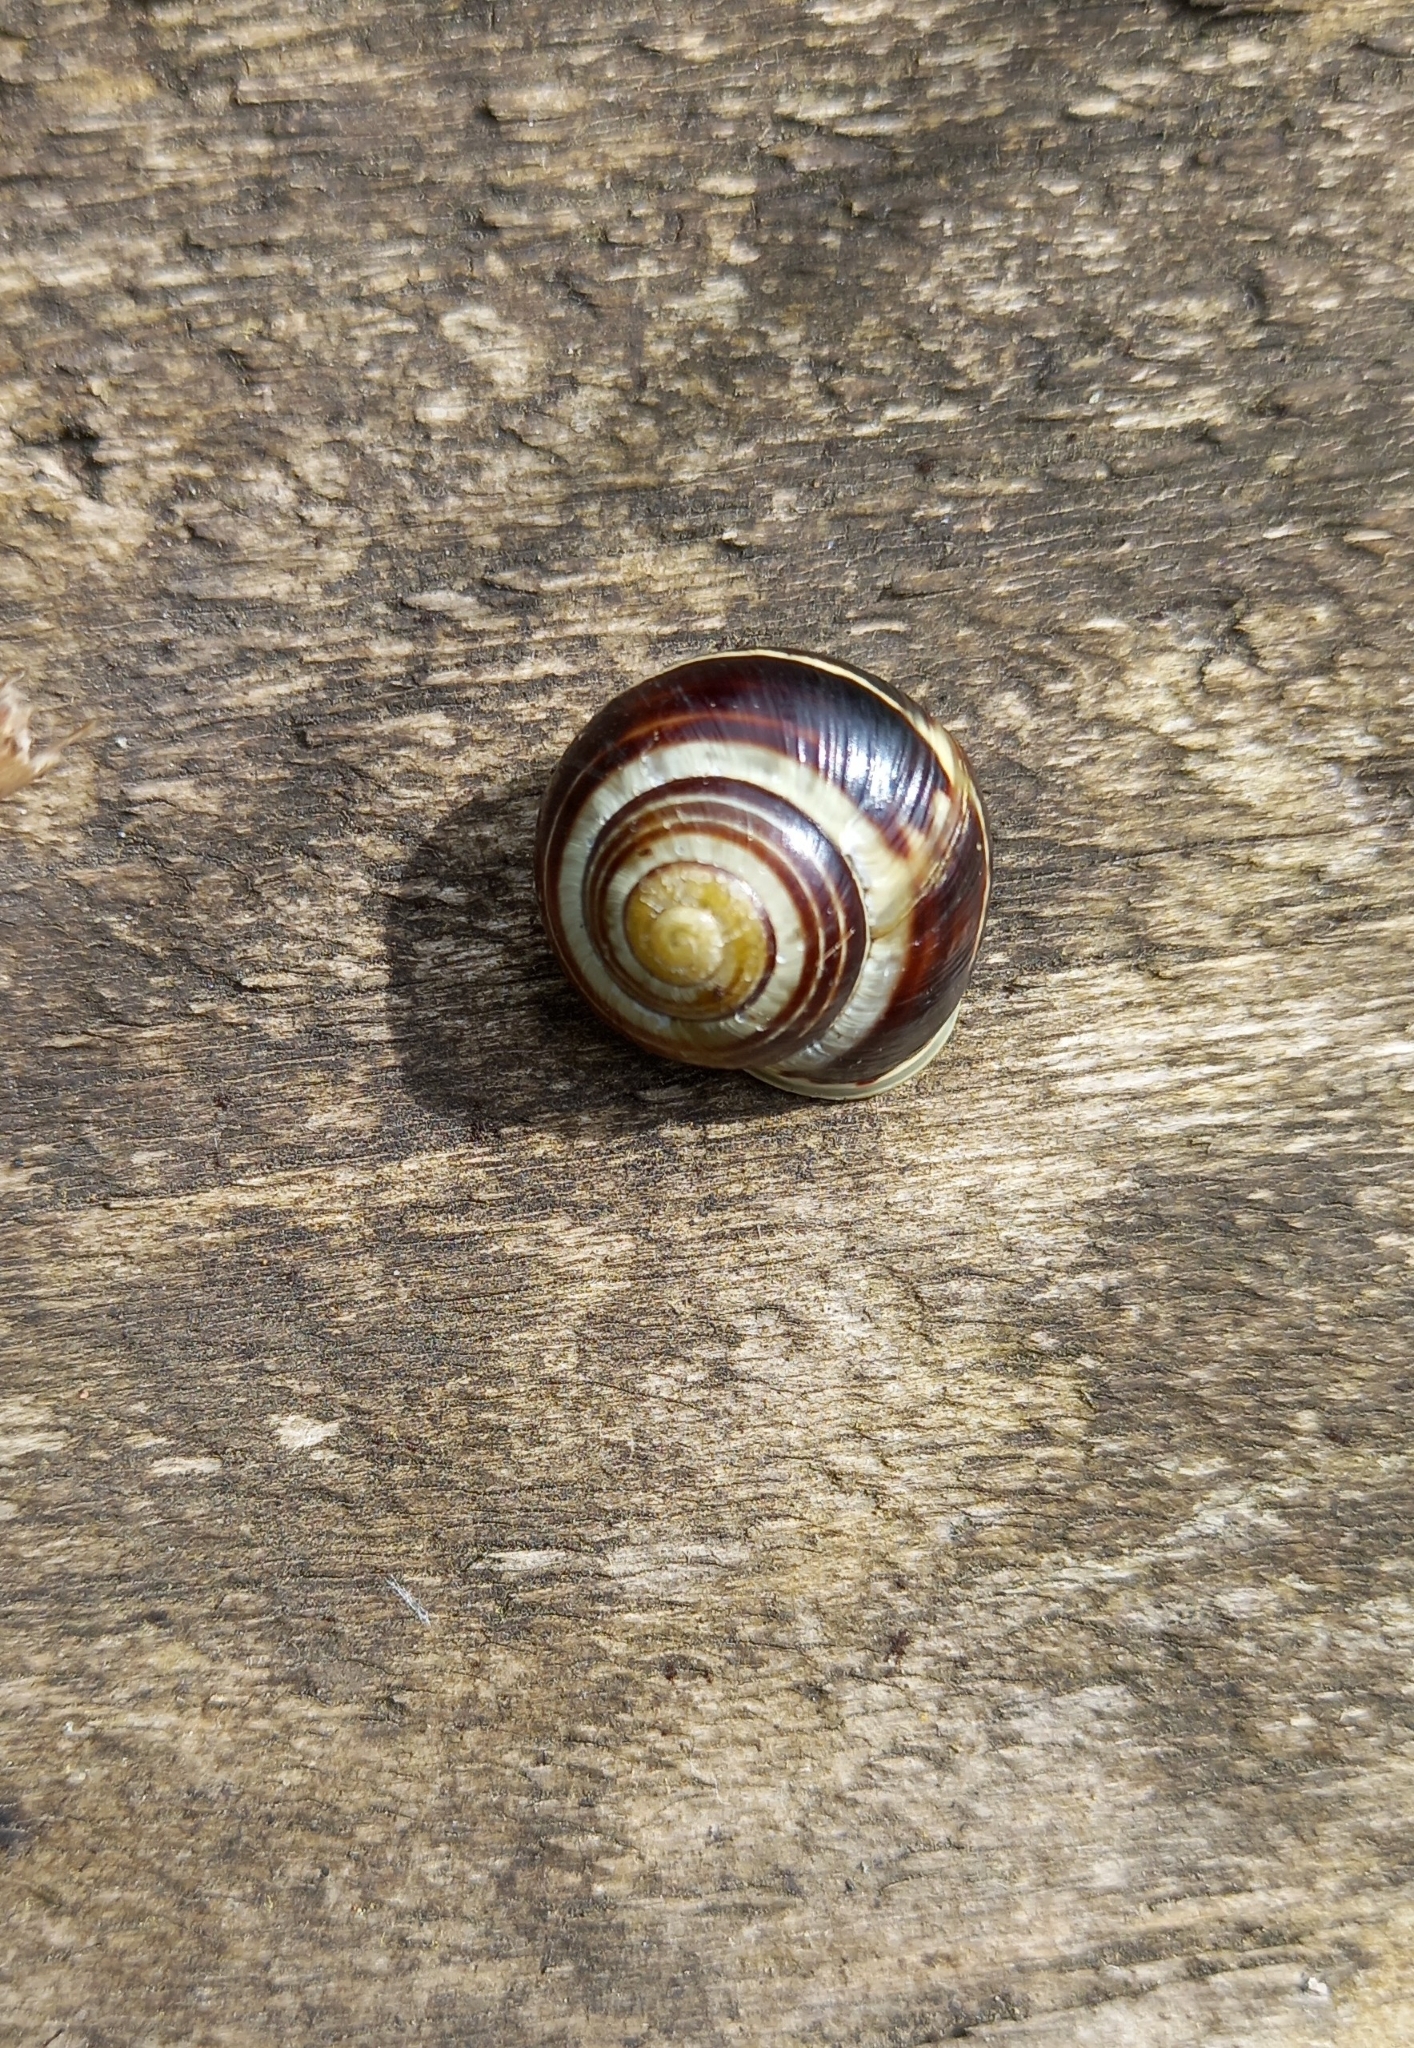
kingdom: Animalia
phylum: Mollusca
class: Gastropoda
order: Stylommatophora
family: Helicidae
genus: Cepaea
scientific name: Cepaea hortensis
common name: White-lip gardensnail
